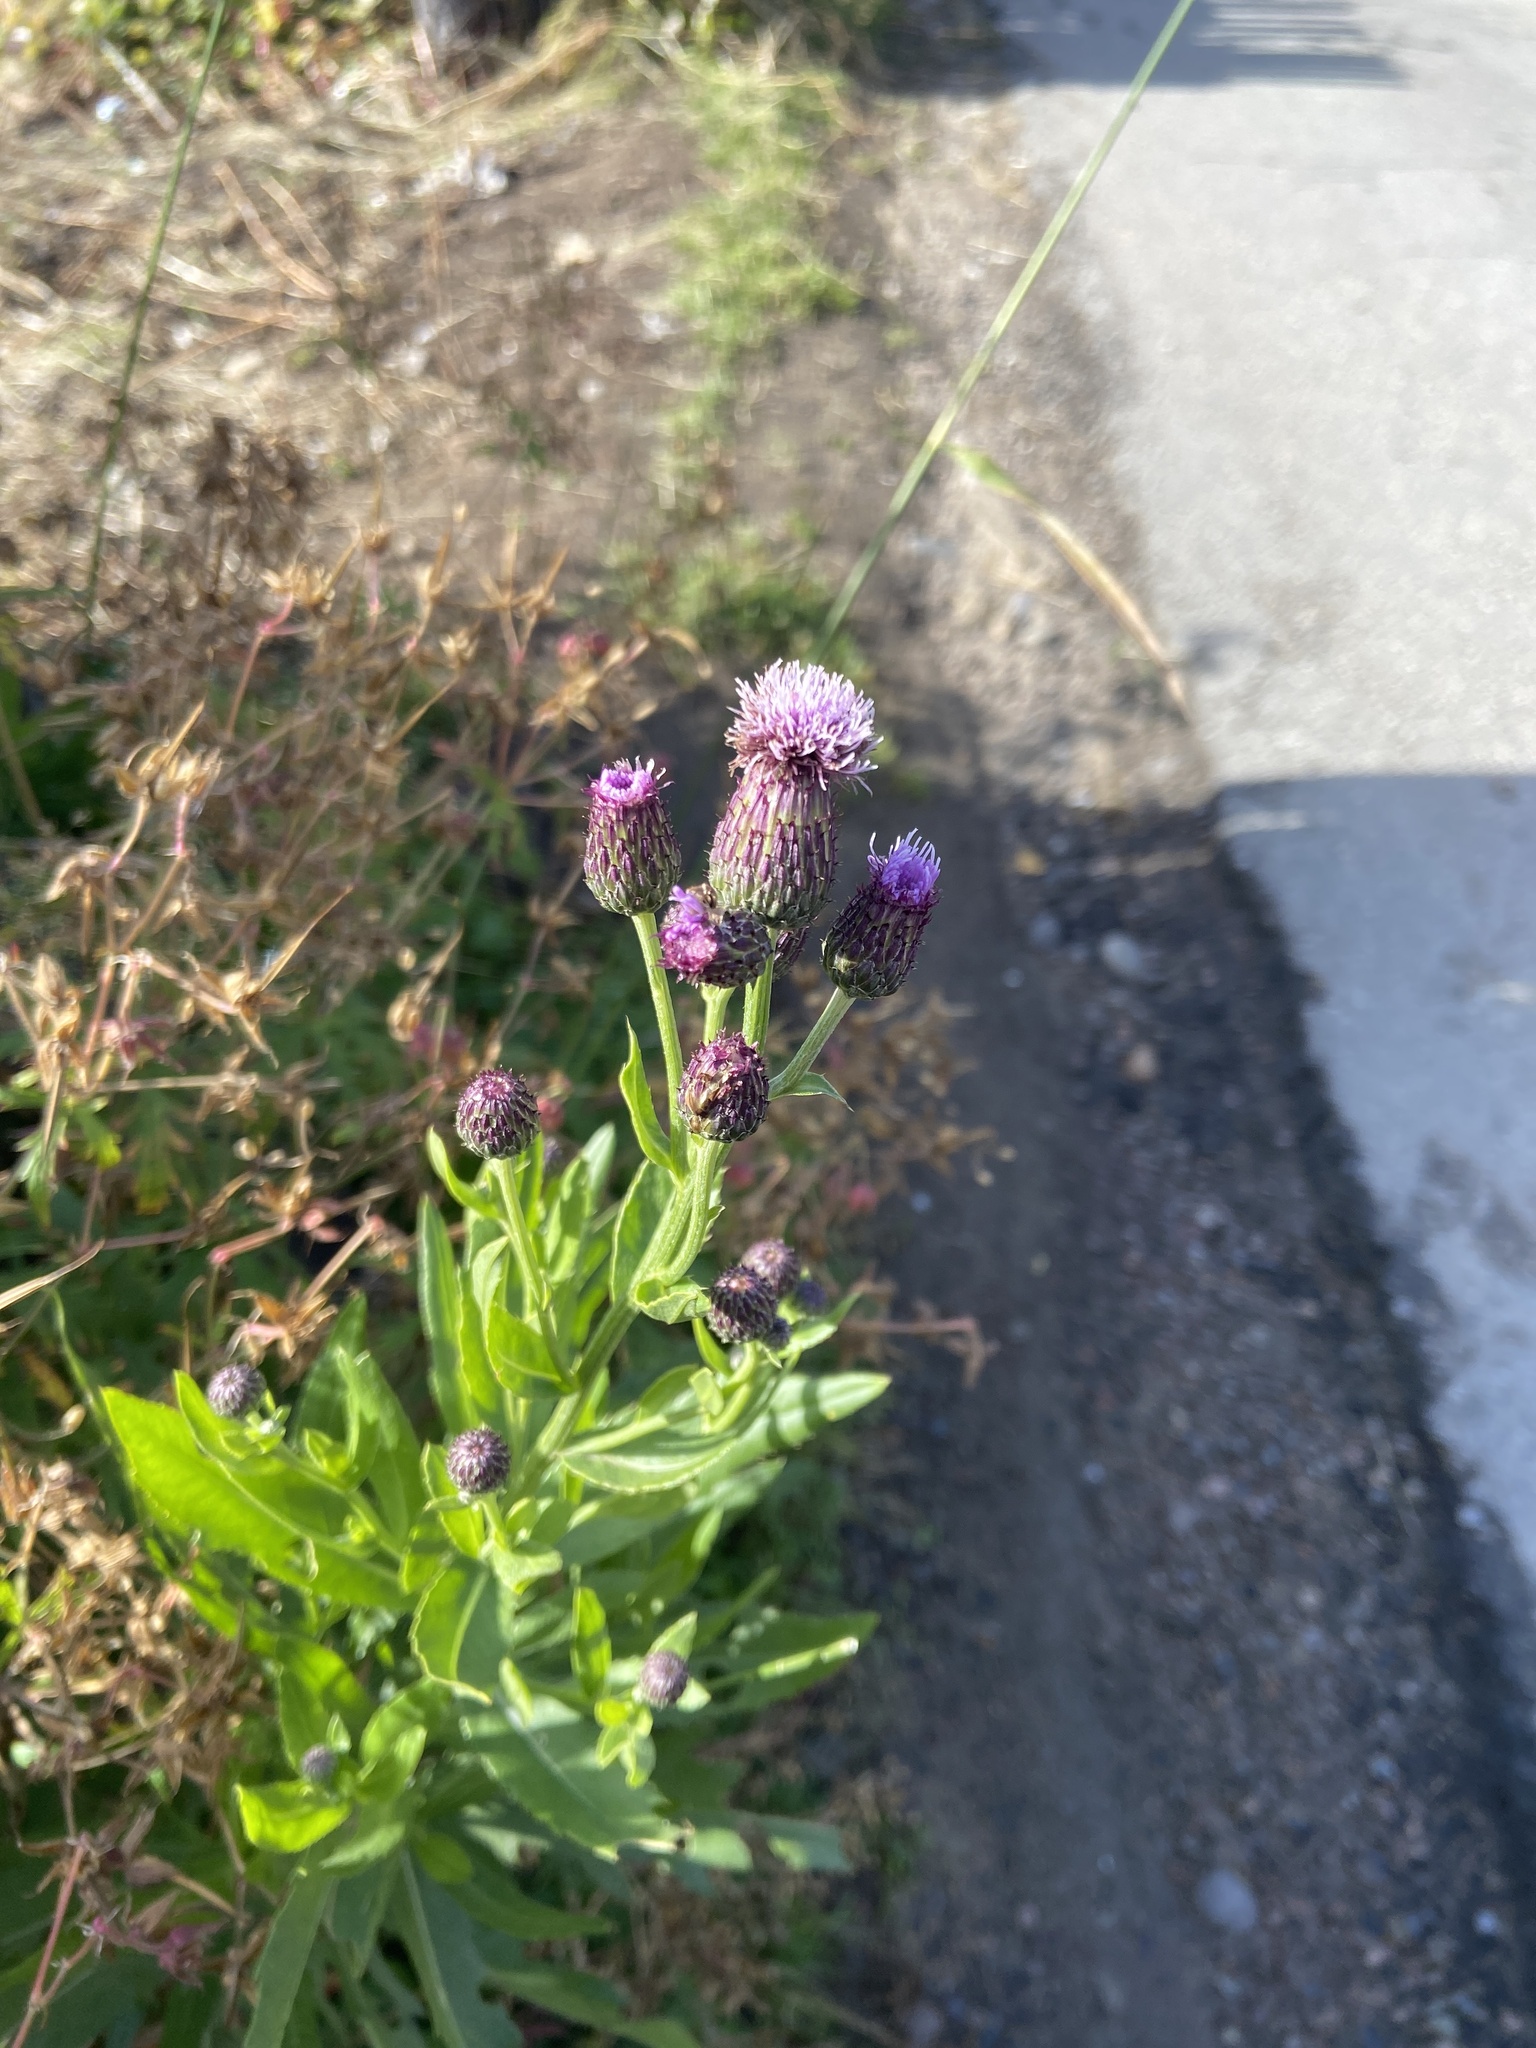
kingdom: Plantae
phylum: Tracheophyta
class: Magnoliopsida
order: Asterales
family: Asteraceae
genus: Cirsium
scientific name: Cirsium arvense
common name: Creeping thistle
